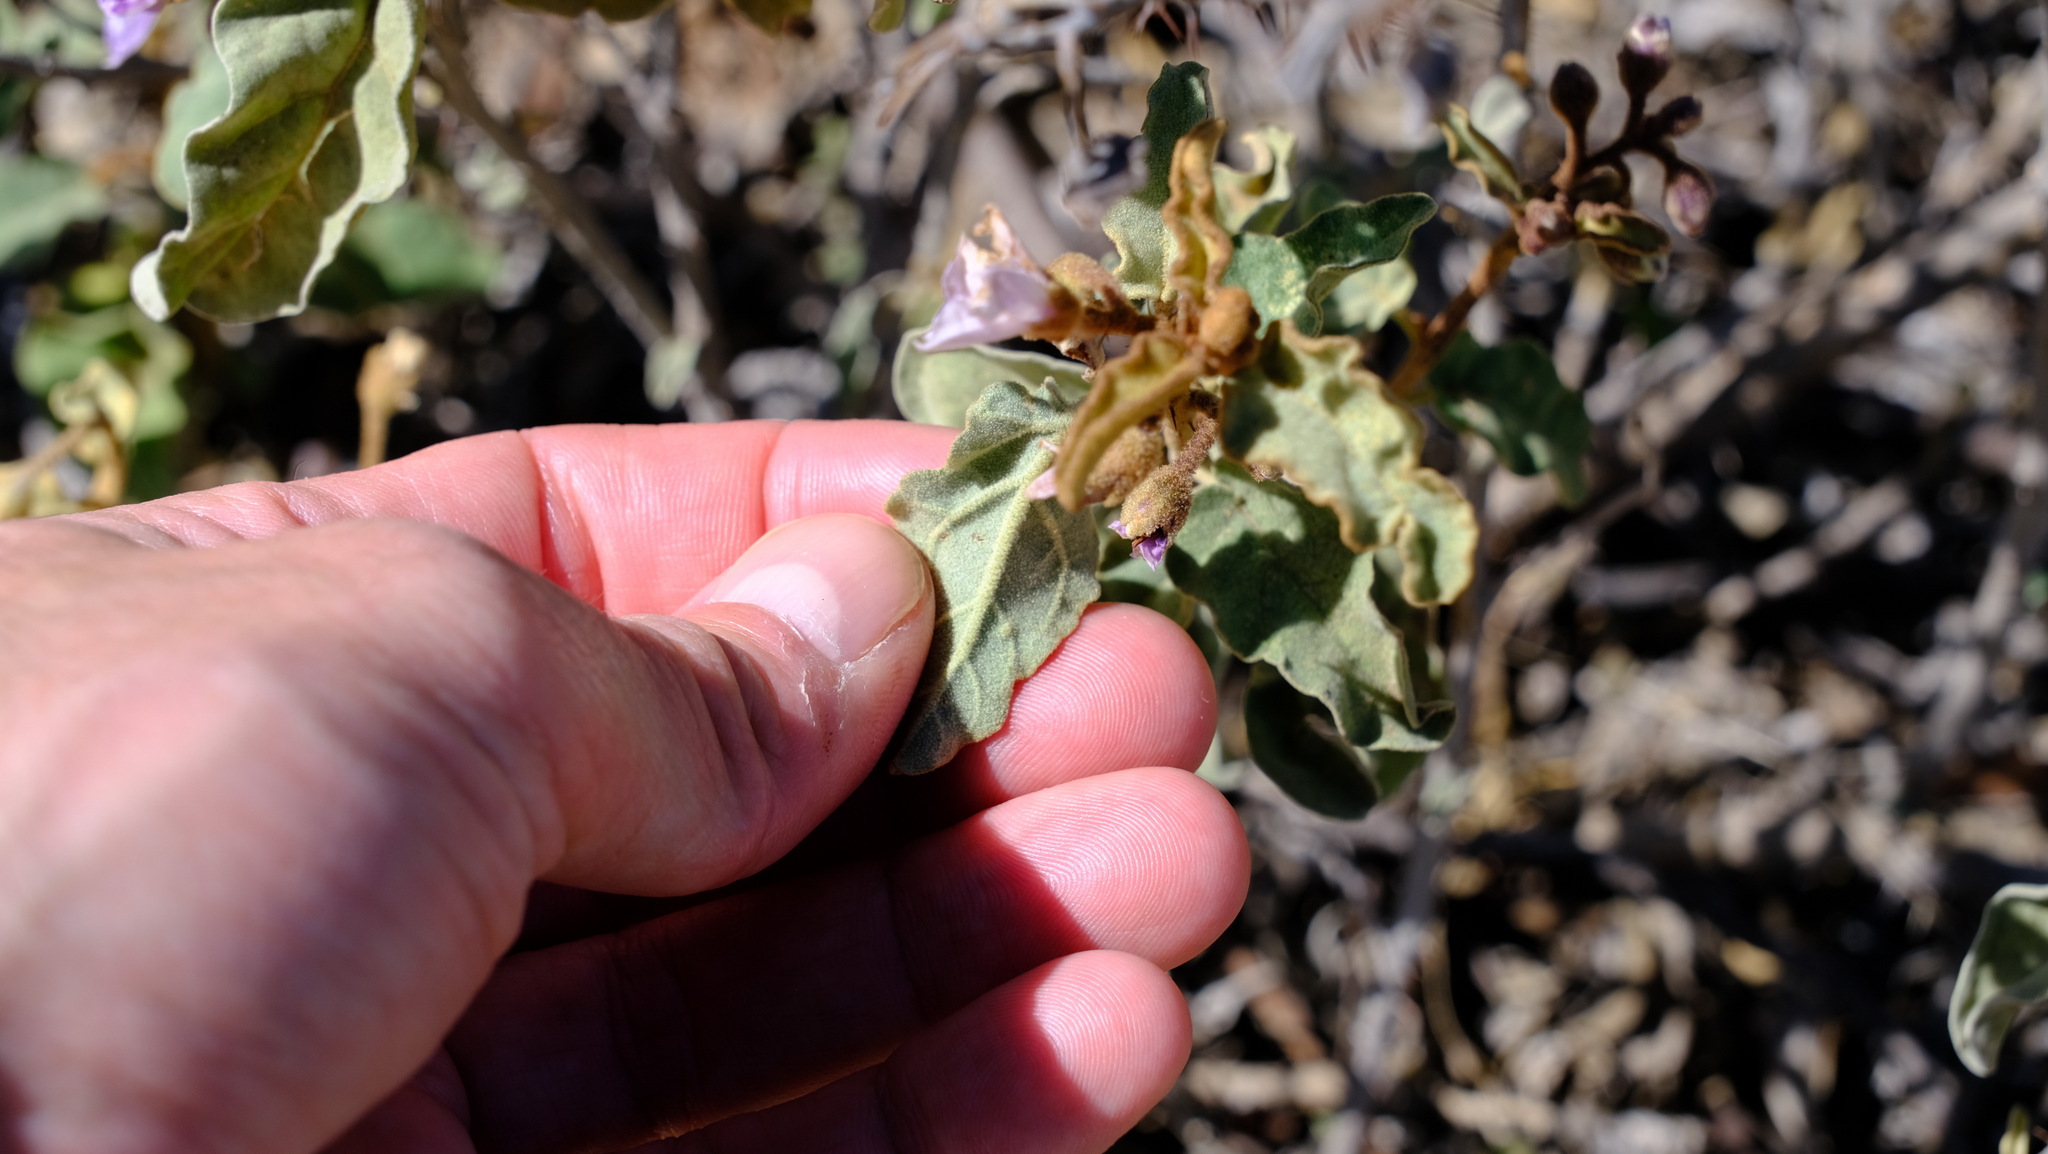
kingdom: Plantae
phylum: Tracheophyta
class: Magnoliopsida
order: Solanales
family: Solanaceae
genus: Solanum
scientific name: Solanum oldfieldii
